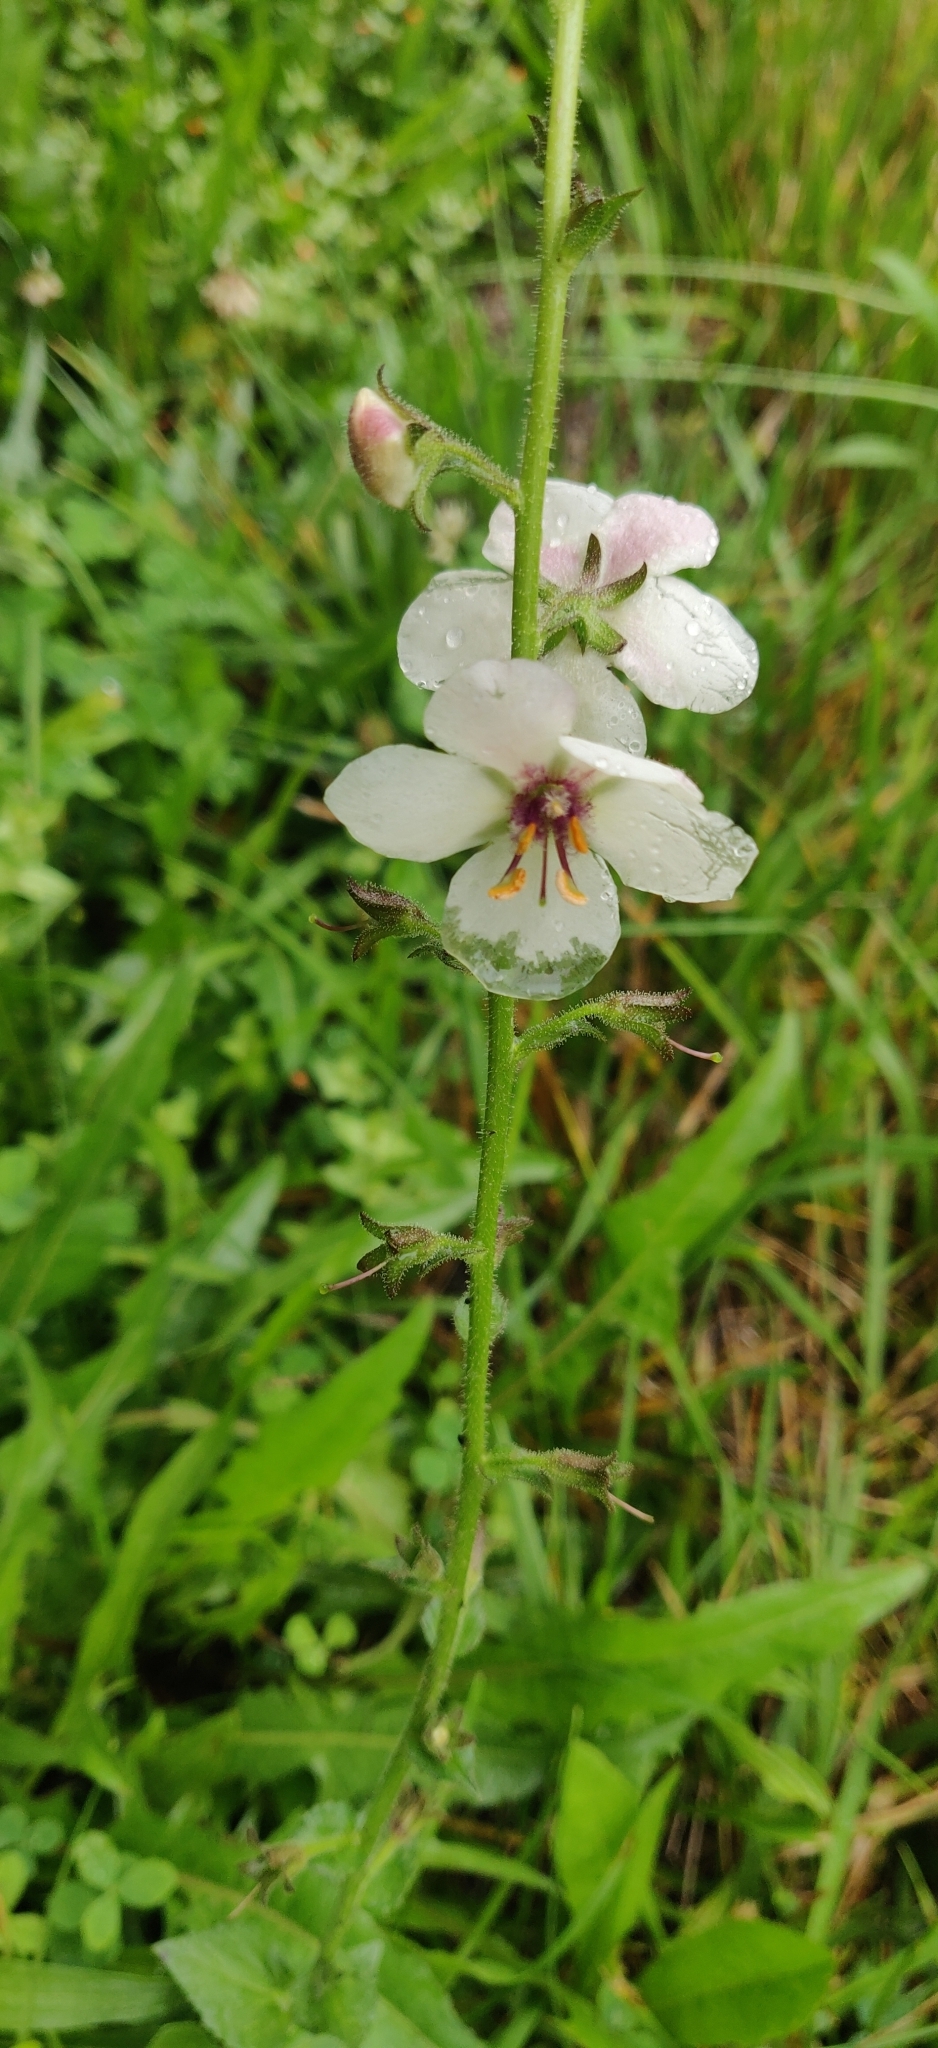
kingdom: Plantae
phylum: Tracheophyta
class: Magnoliopsida
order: Lamiales
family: Scrophulariaceae
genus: Verbascum
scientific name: Verbascum blattaria
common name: Moth mullein
